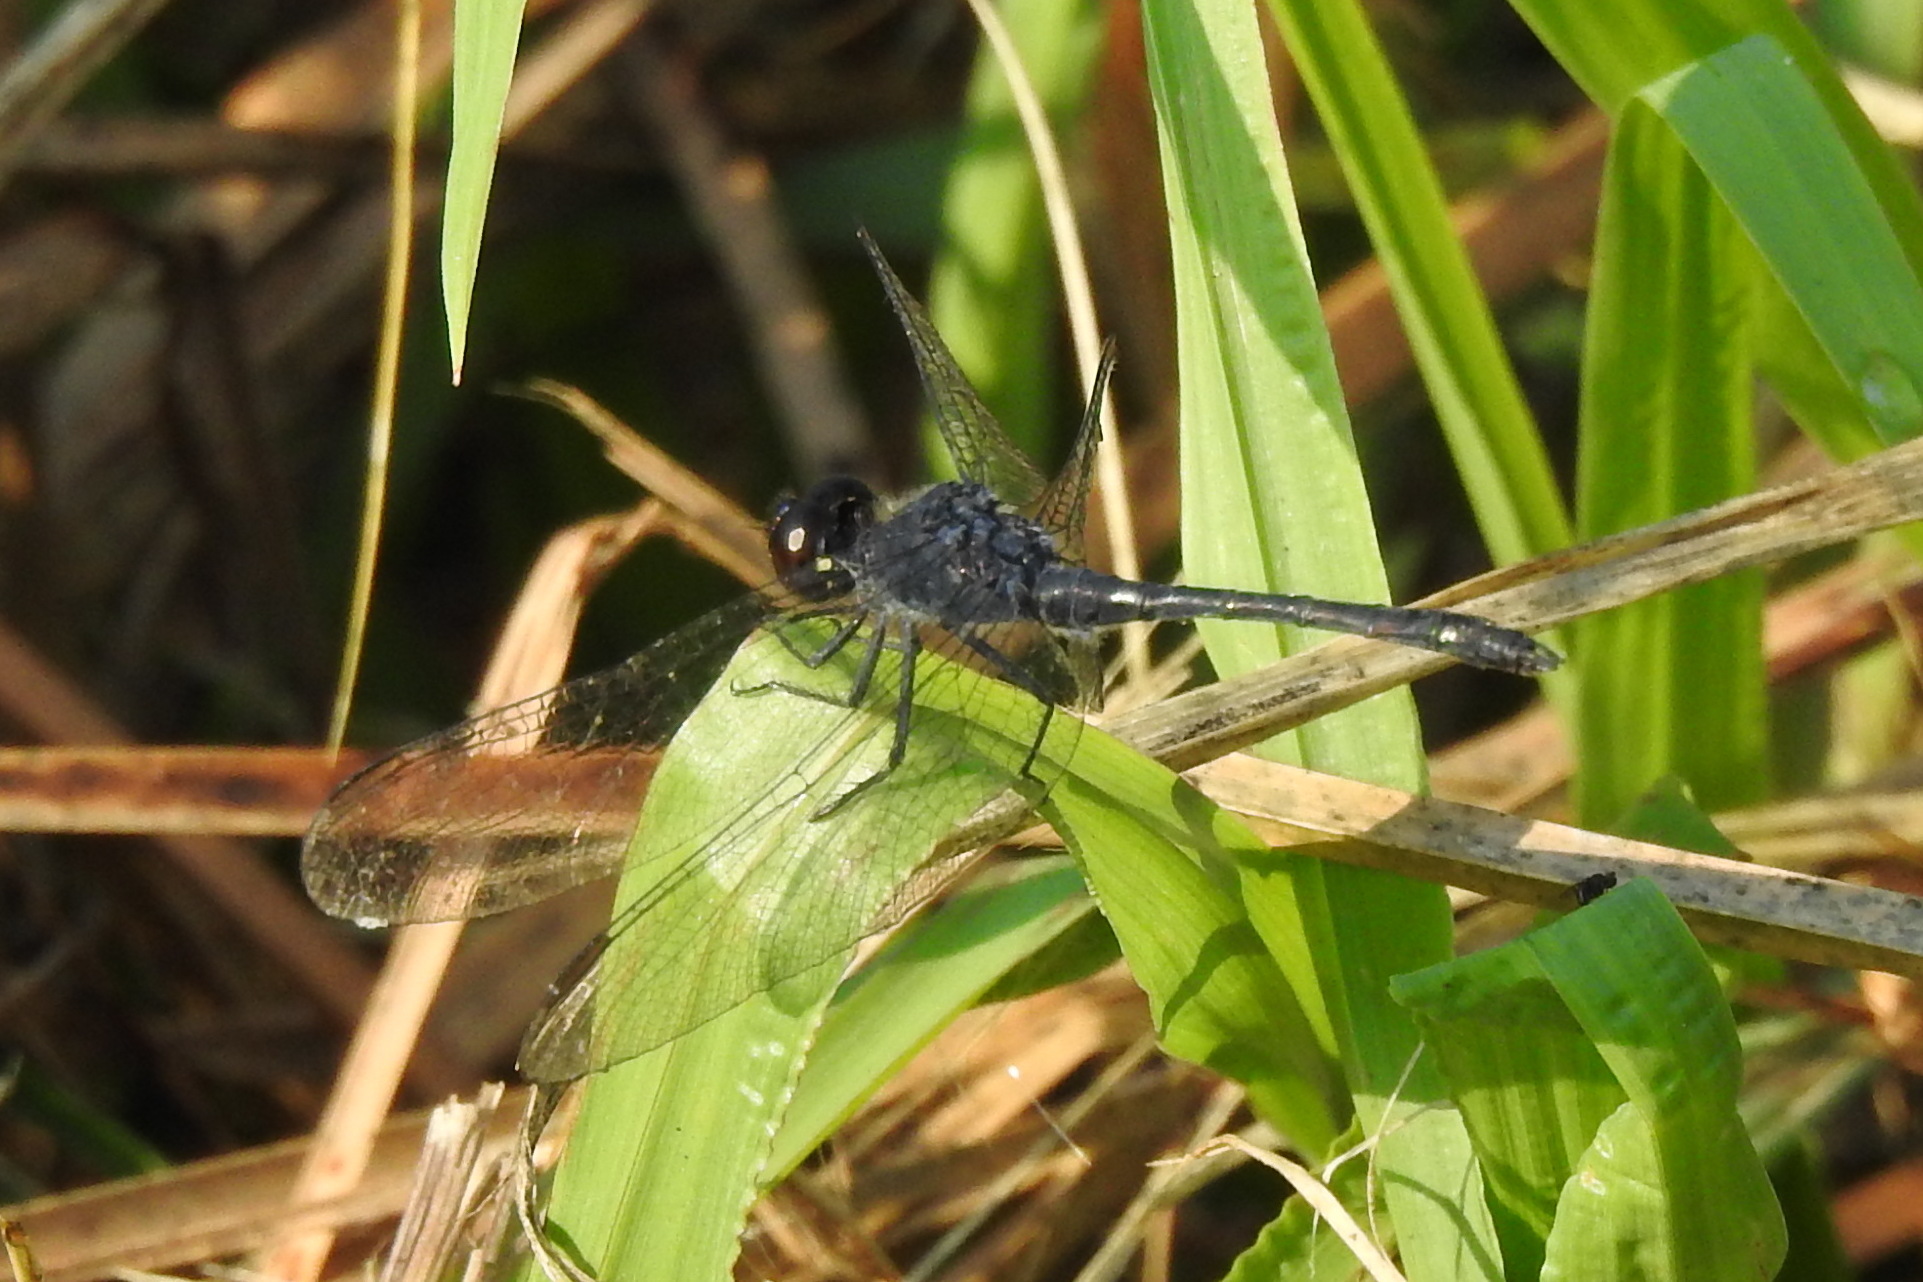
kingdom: Animalia
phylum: Arthropoda
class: Insecta
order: Odonata
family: Libellulidae
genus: Erythrodiplax
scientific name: Erythrodiplax berenice
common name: Seaside dragonlet
